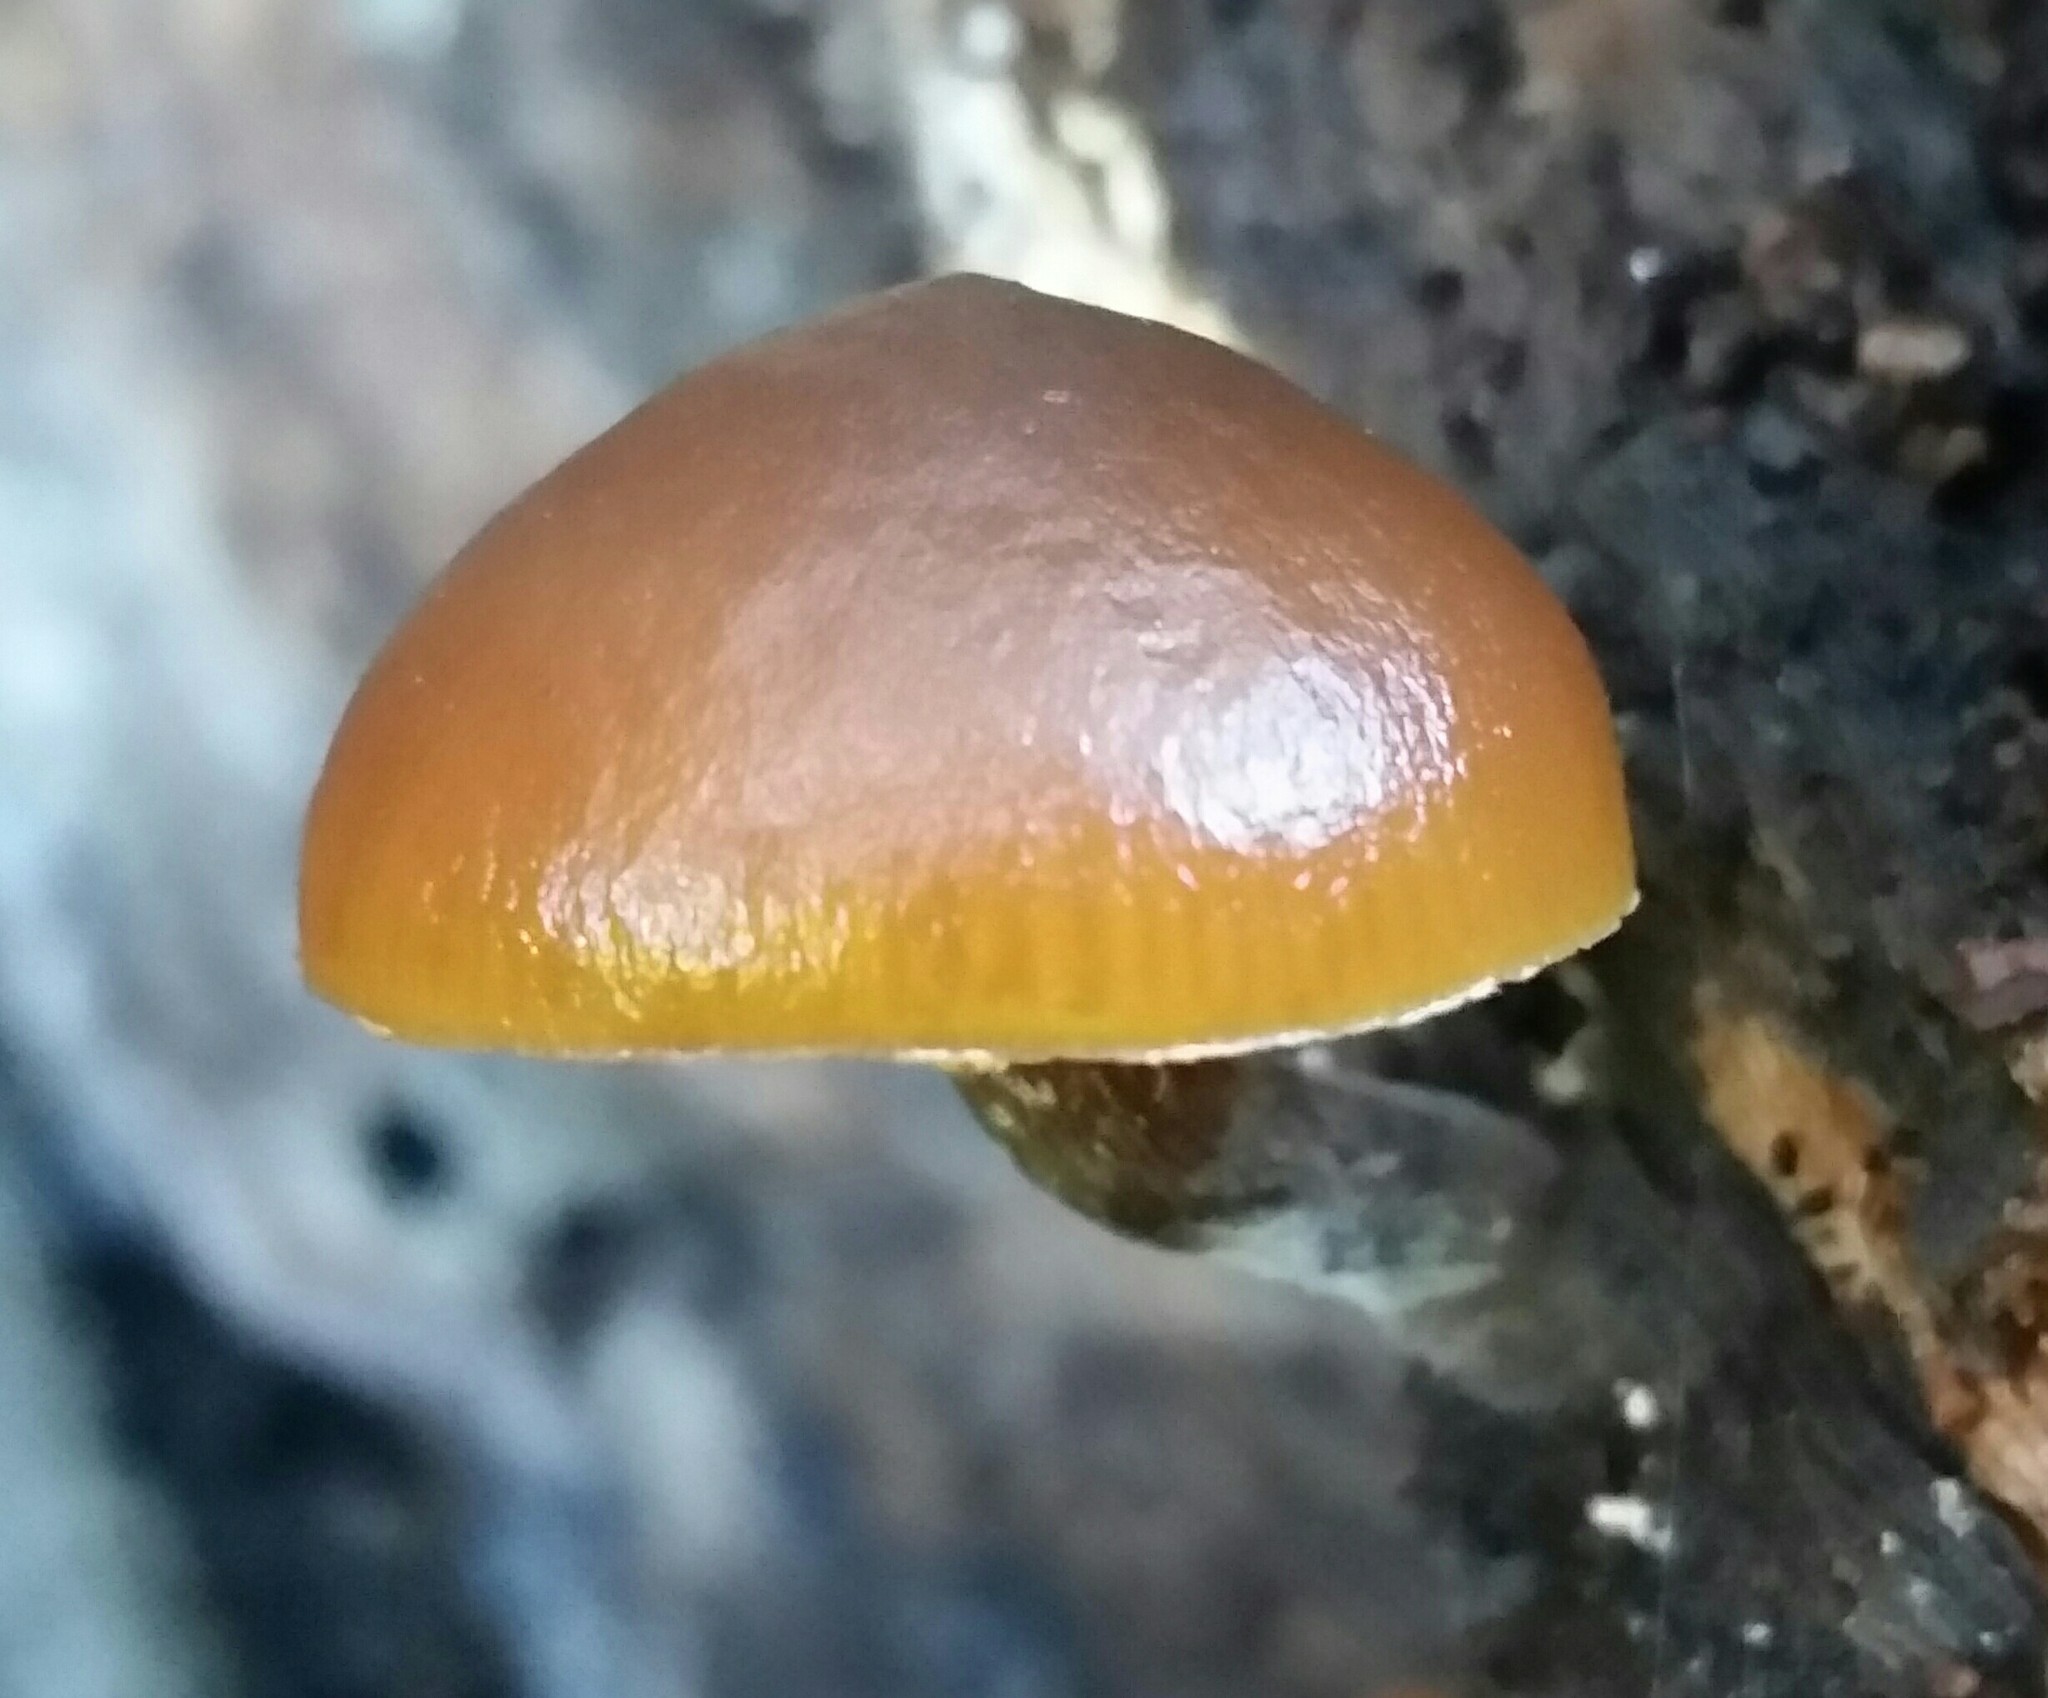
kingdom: Fungi
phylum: Basidiomycota
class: Agaricomycetes
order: Agaricales
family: Hymenogastraceae
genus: Galerina
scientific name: Galerina marginata
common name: Funeral bell
